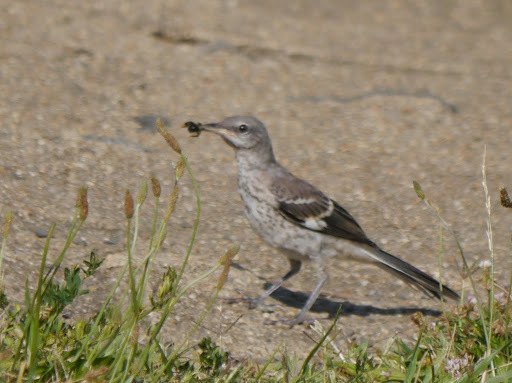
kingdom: Animalia
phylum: Chordata
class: Aves
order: Passeriformes
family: Mimidae
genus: Mimus
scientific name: Mimus polyglottos
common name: Northern mockingbird
